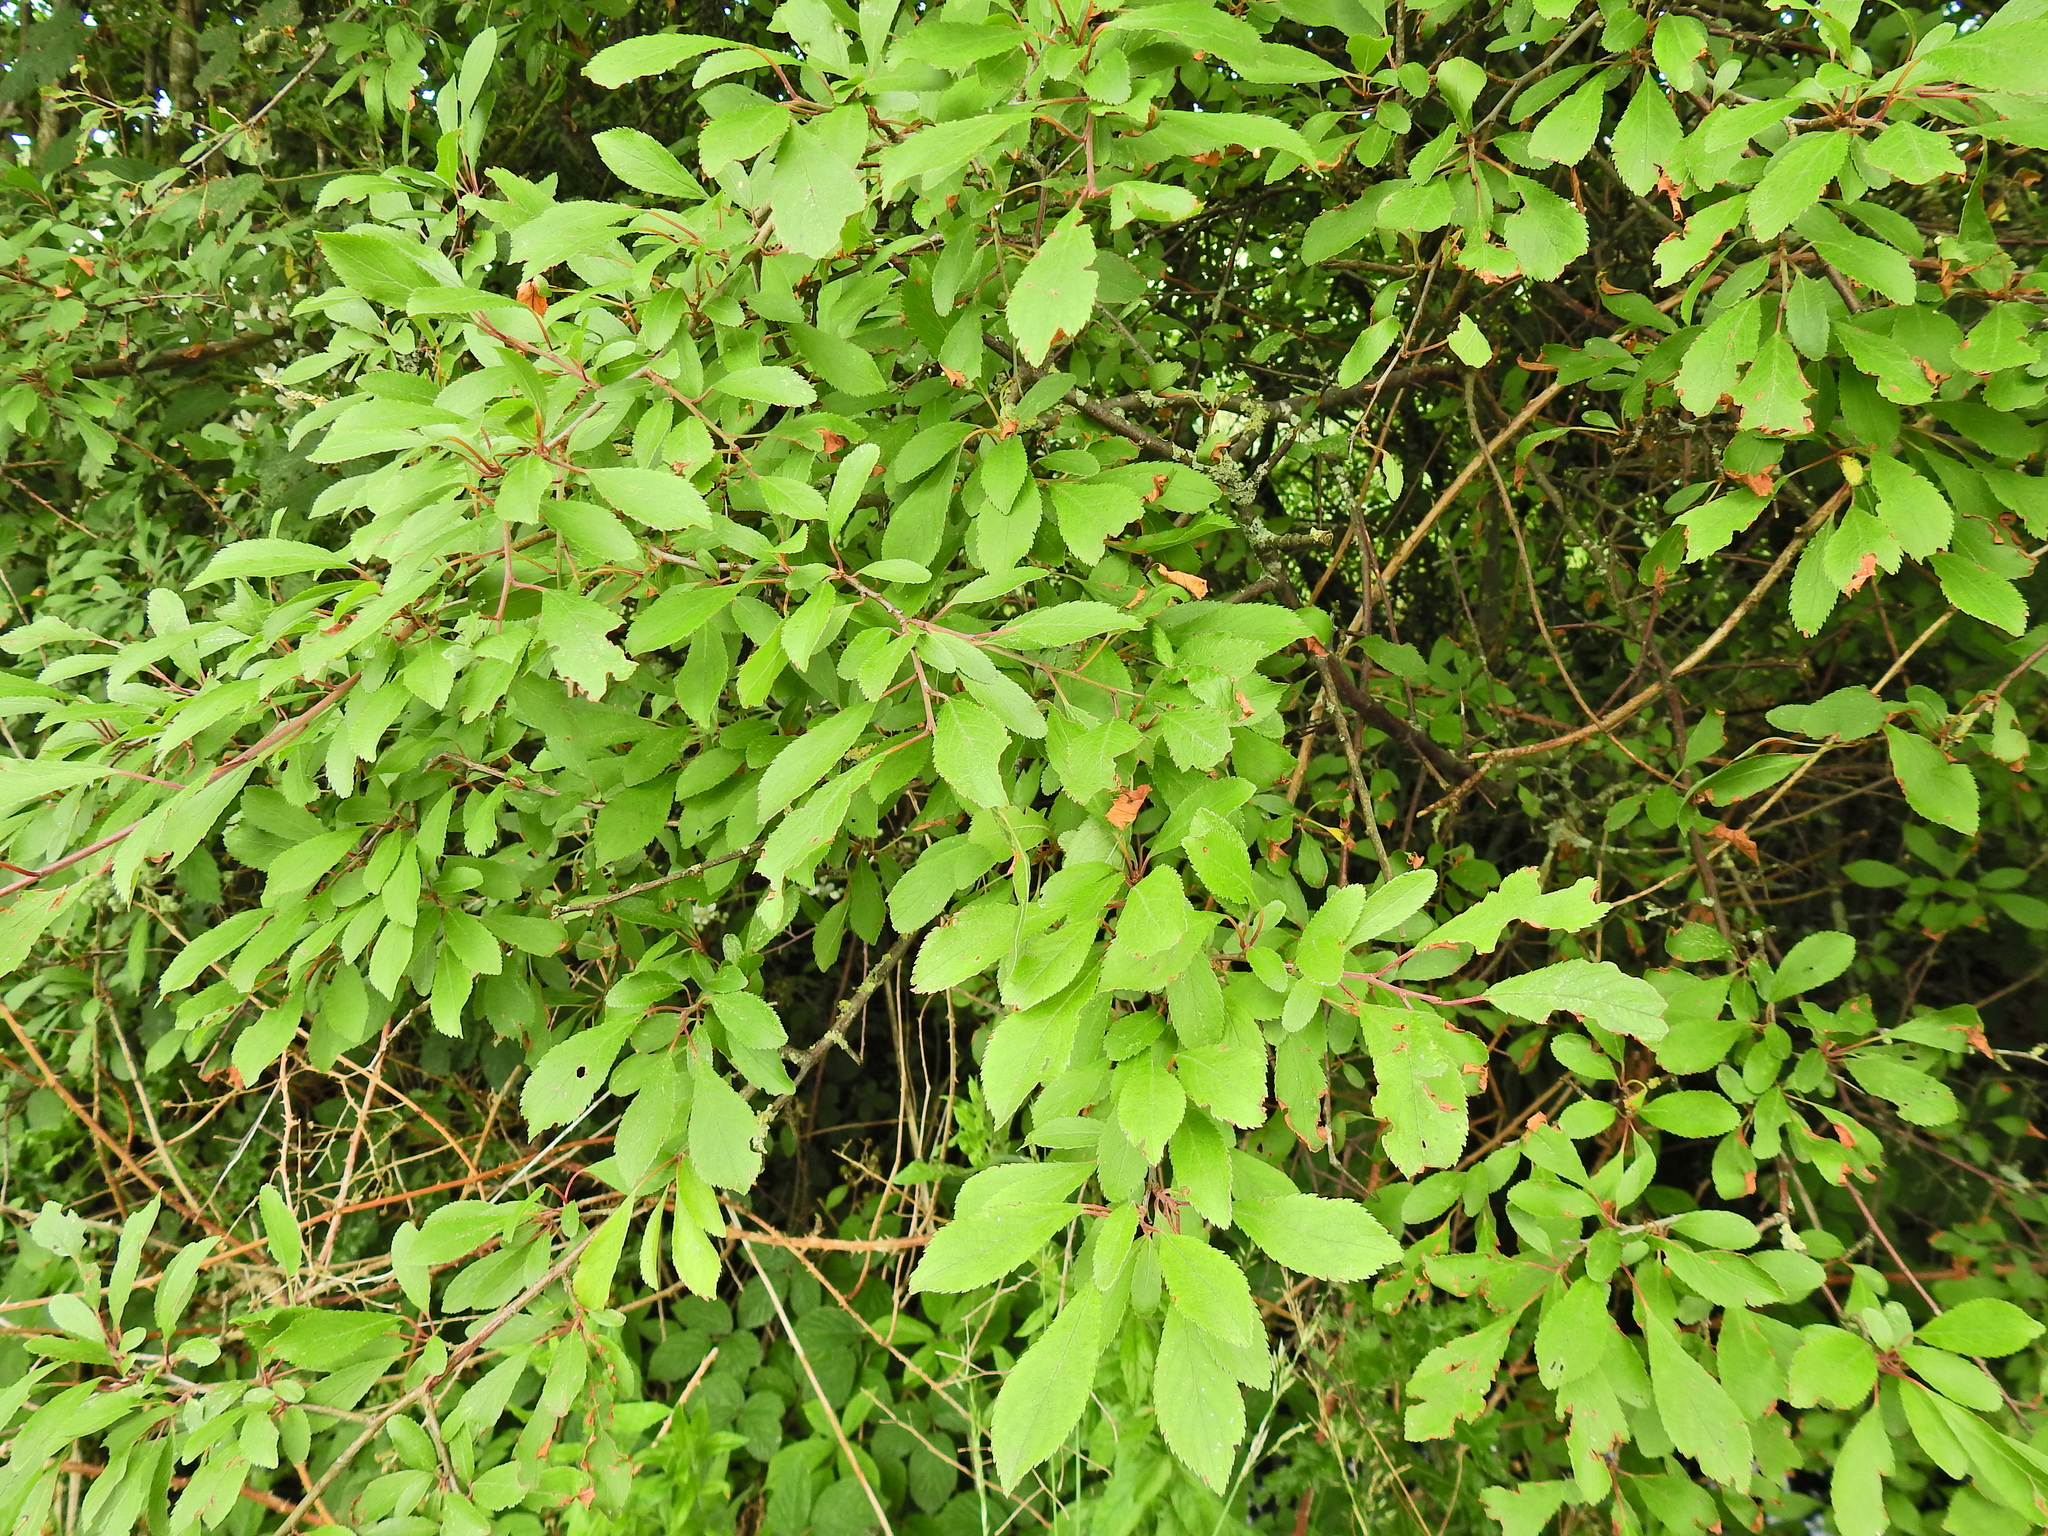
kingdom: Plantae
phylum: Tracheophyta
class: Magnoliopsida
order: Rosales
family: Rosaceae
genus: Prunus
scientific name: Prunus spinosa
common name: Blackthorn
